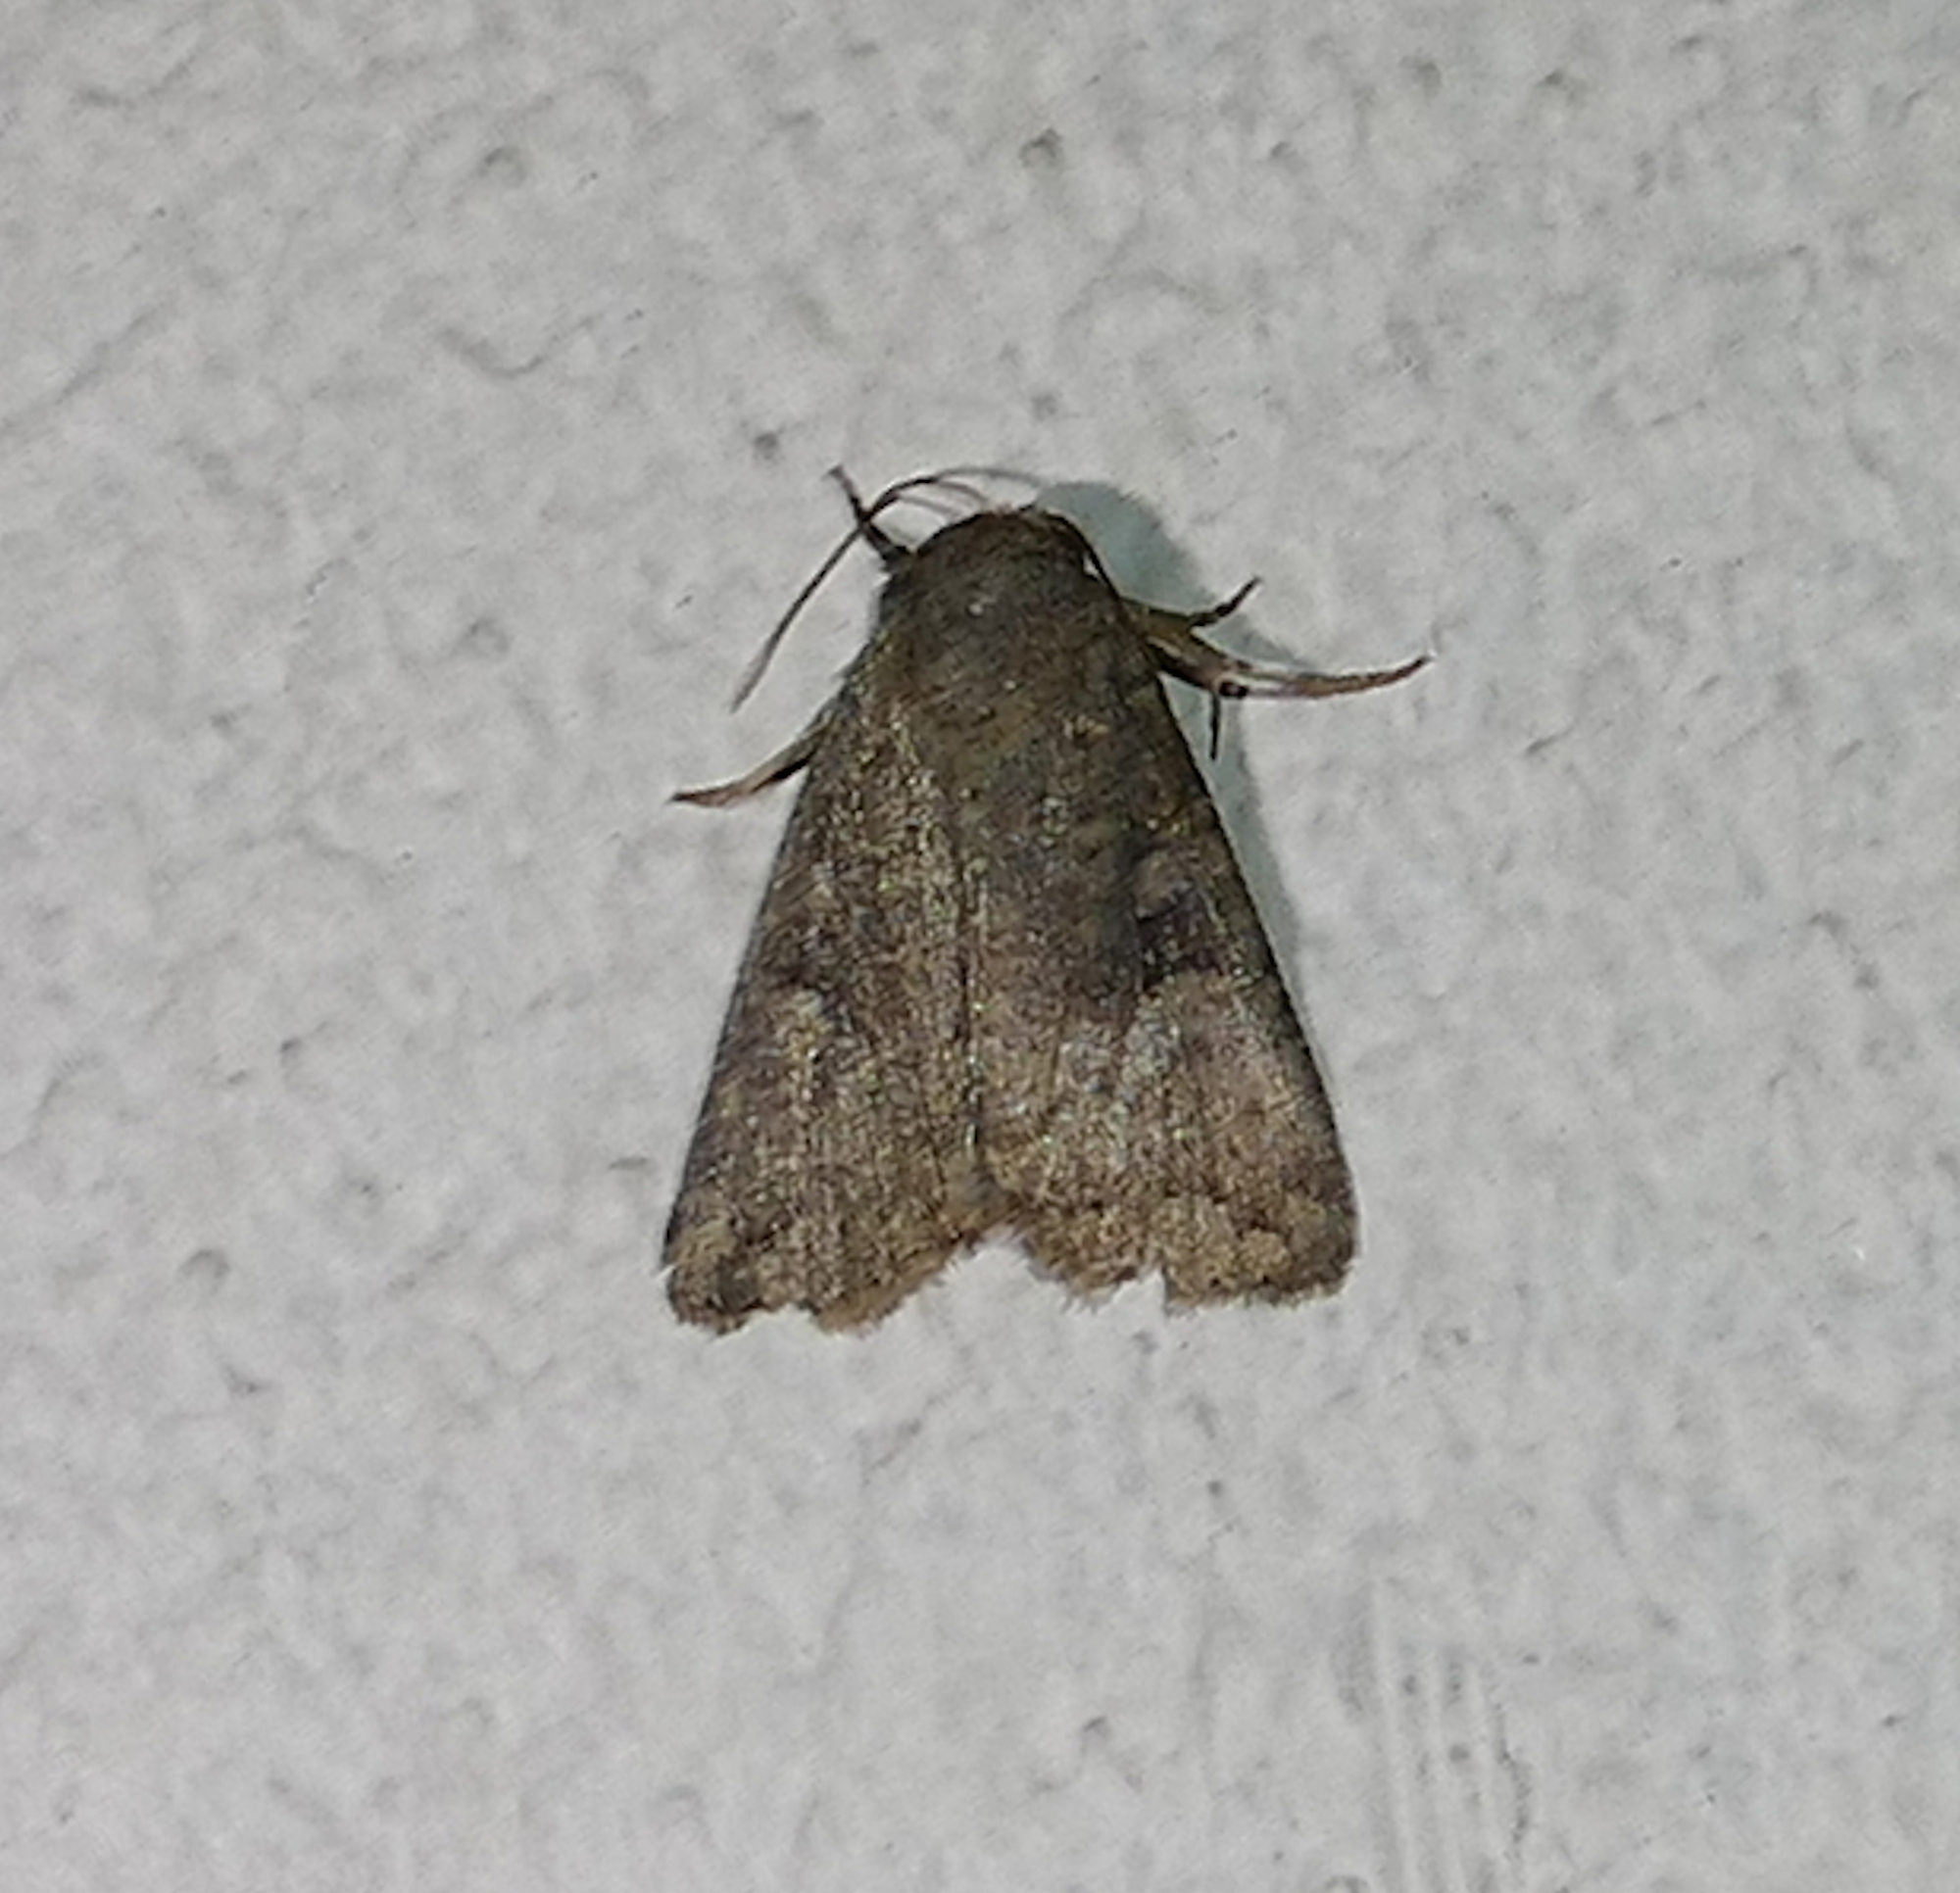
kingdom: Animalia
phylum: Arthropoda
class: Insecta
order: Lepidoptera
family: Noctuidae
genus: Condica
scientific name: Condica sutor
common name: Cobbler moth
